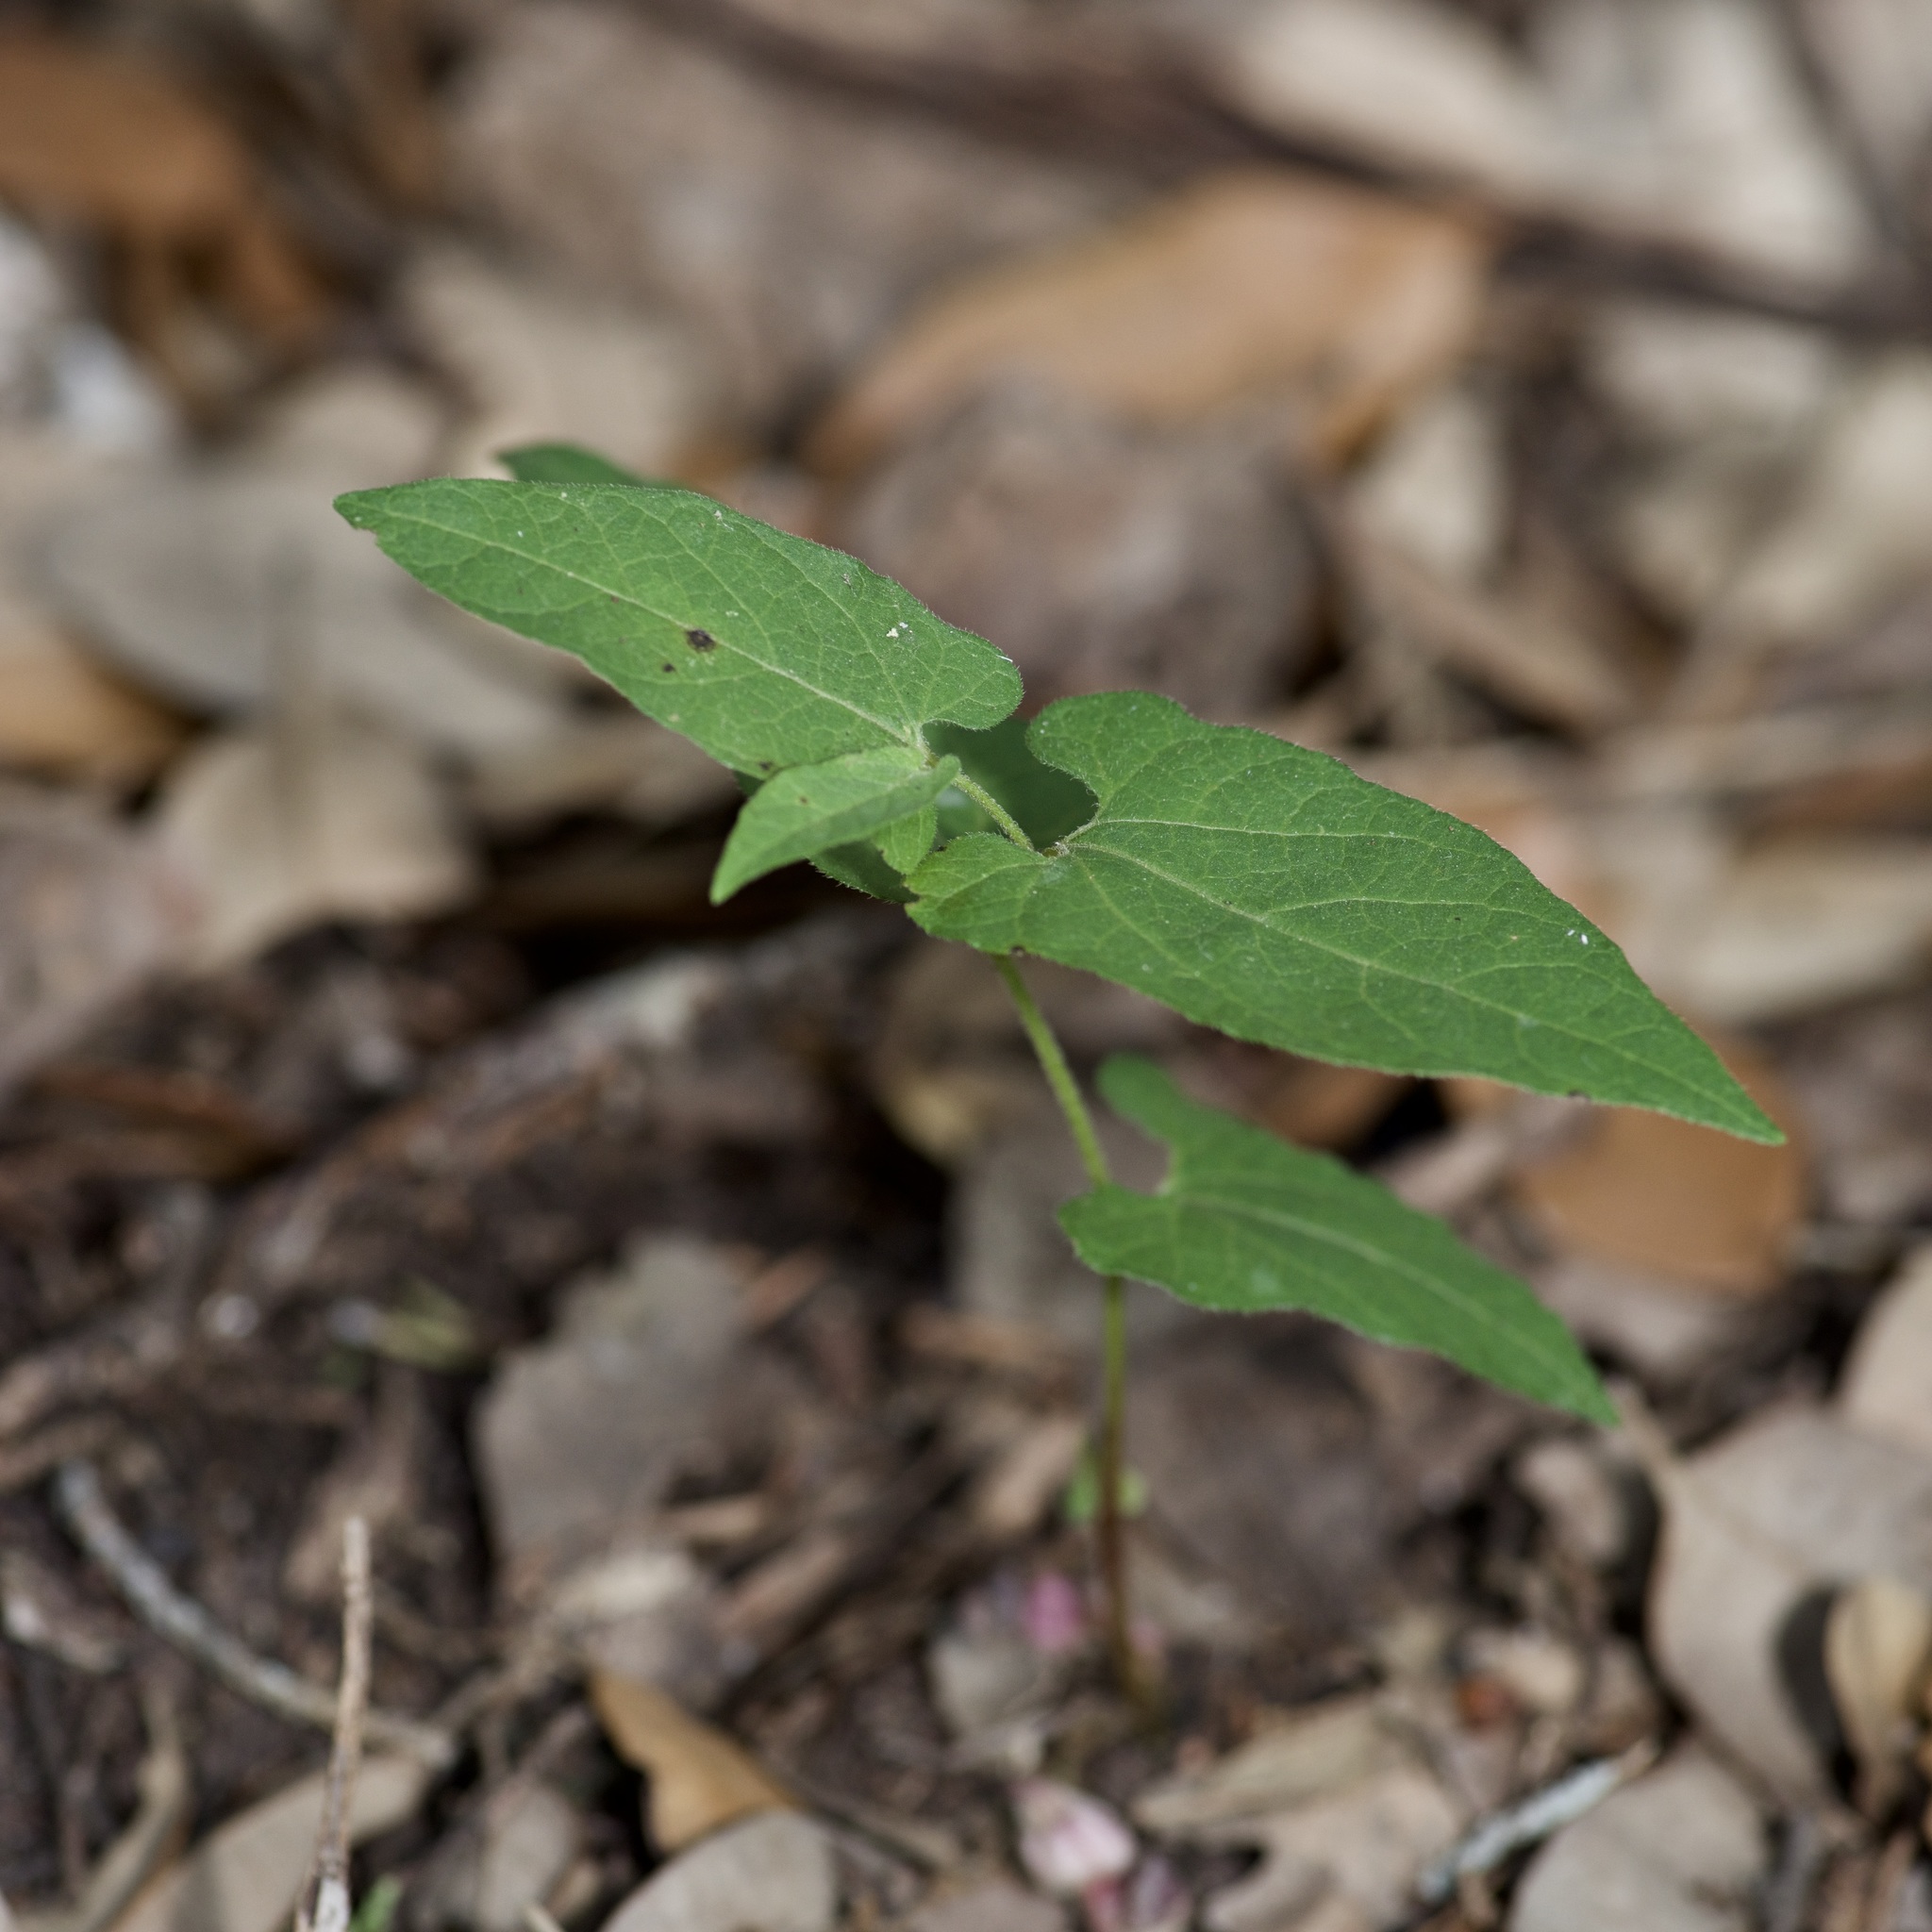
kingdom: Plantae
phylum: Tracheophyta
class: Magnoliopsida
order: Piperales
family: Aristolochiaceae
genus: Endodeca
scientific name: Endodeca serpentaria
